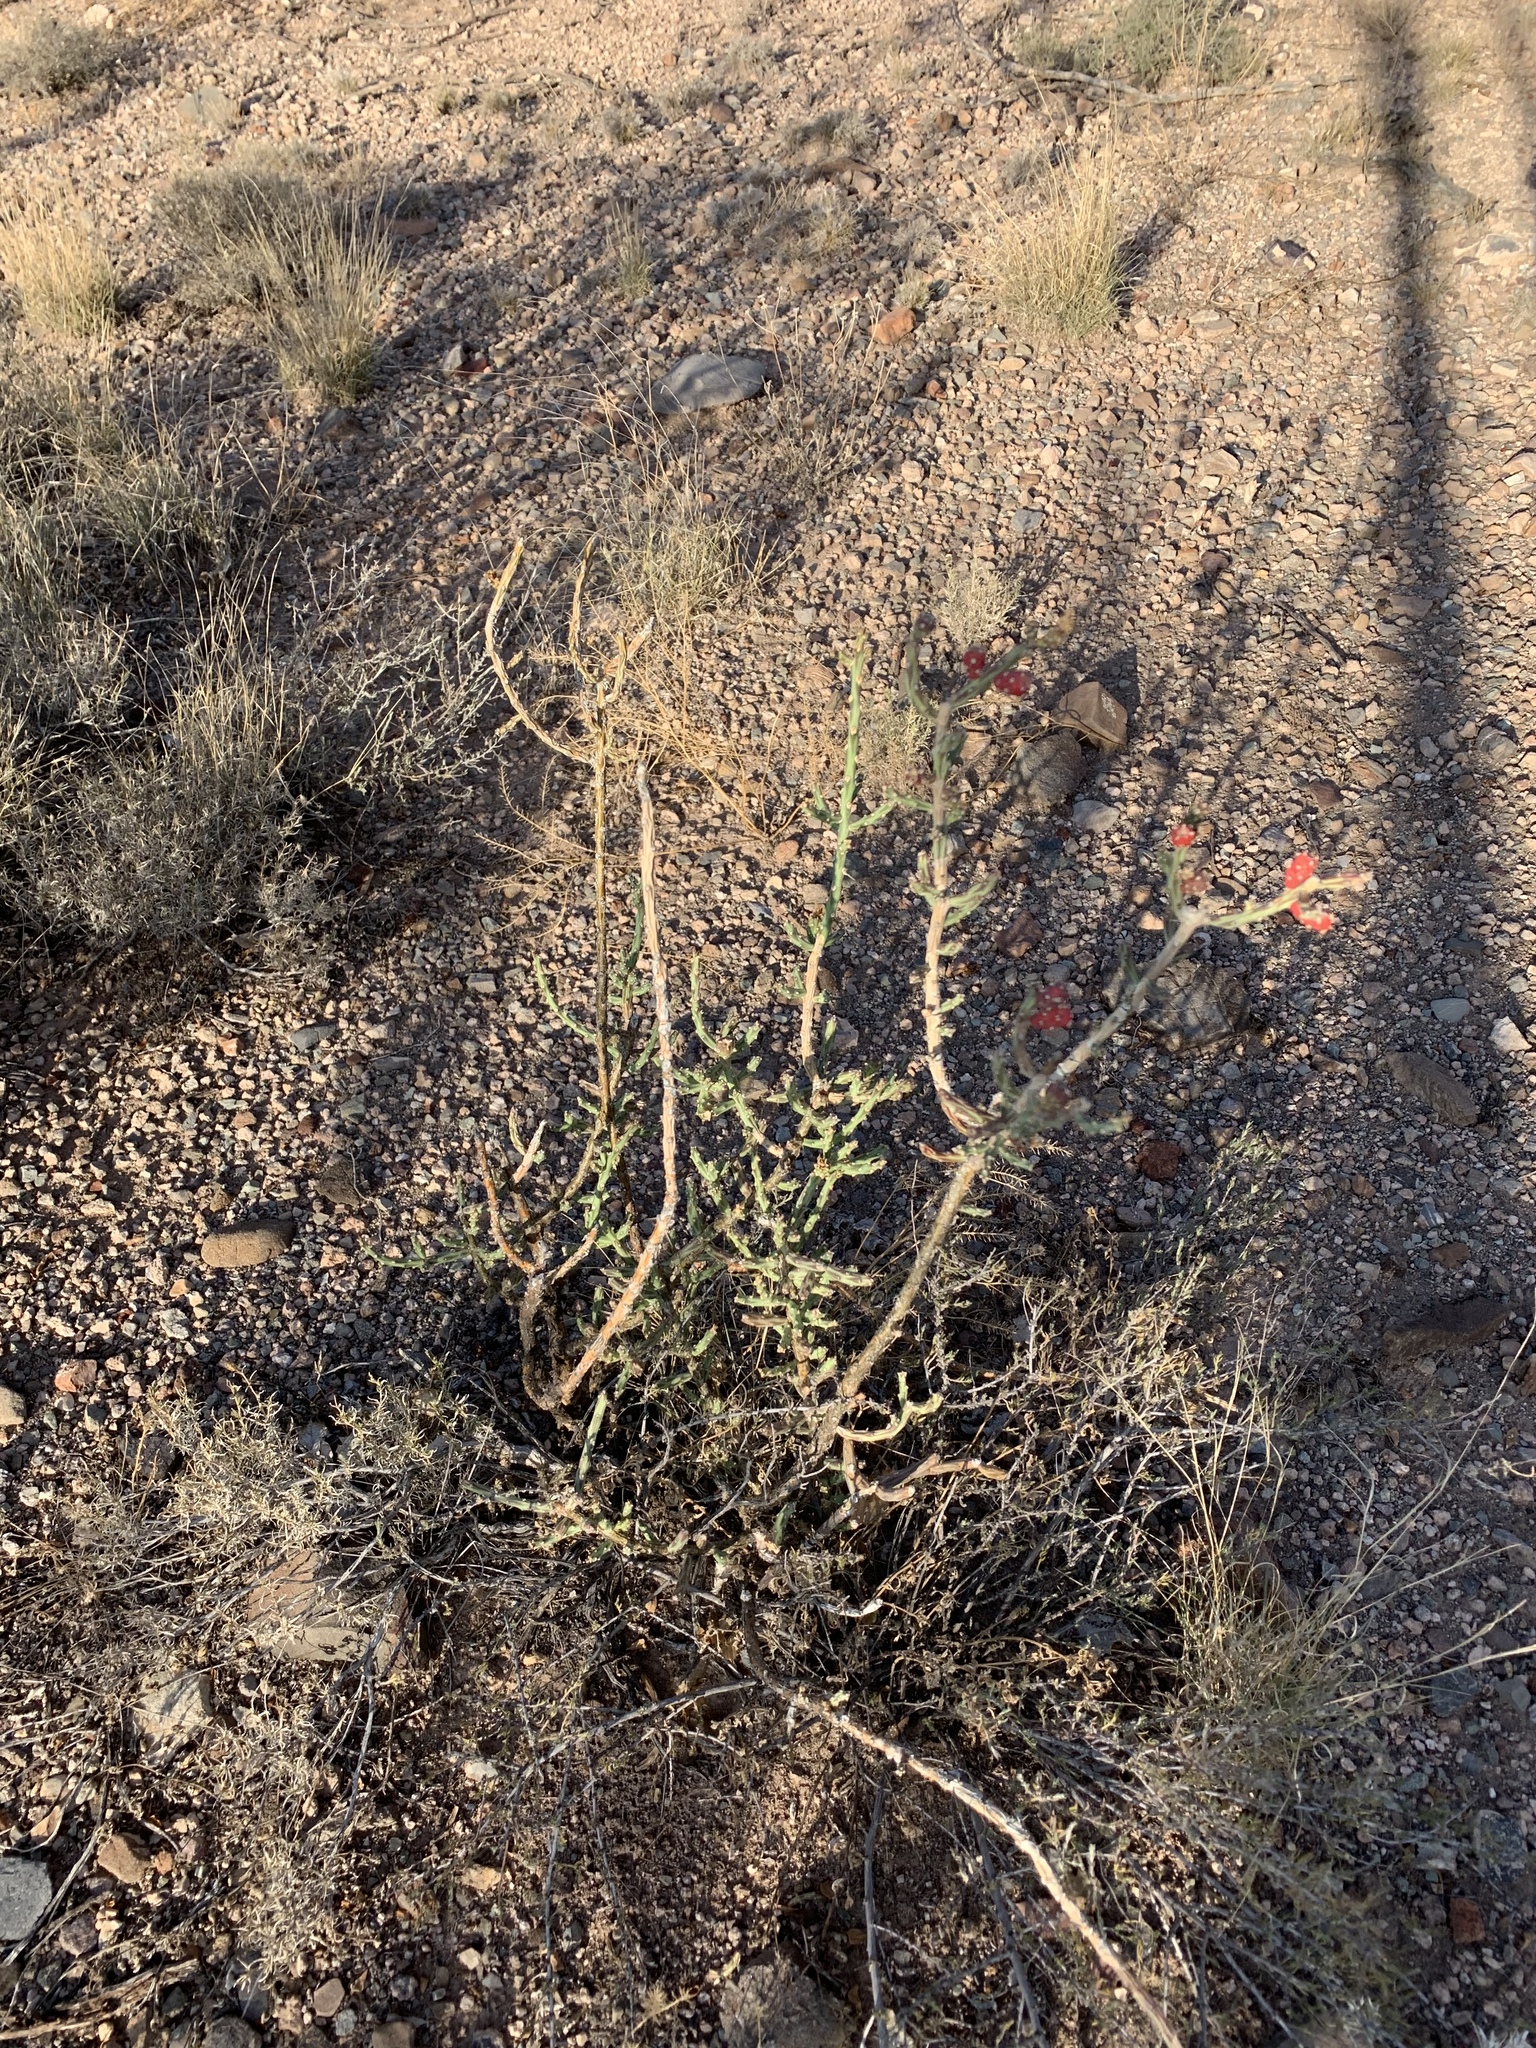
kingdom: Plantae
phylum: Tracheophyta
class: Magnoliopsida
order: Caryophyllales
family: Cactaceae
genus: Cylindropuntia
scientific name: Cylindropuntia leptocaulis
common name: Christmas cactus
